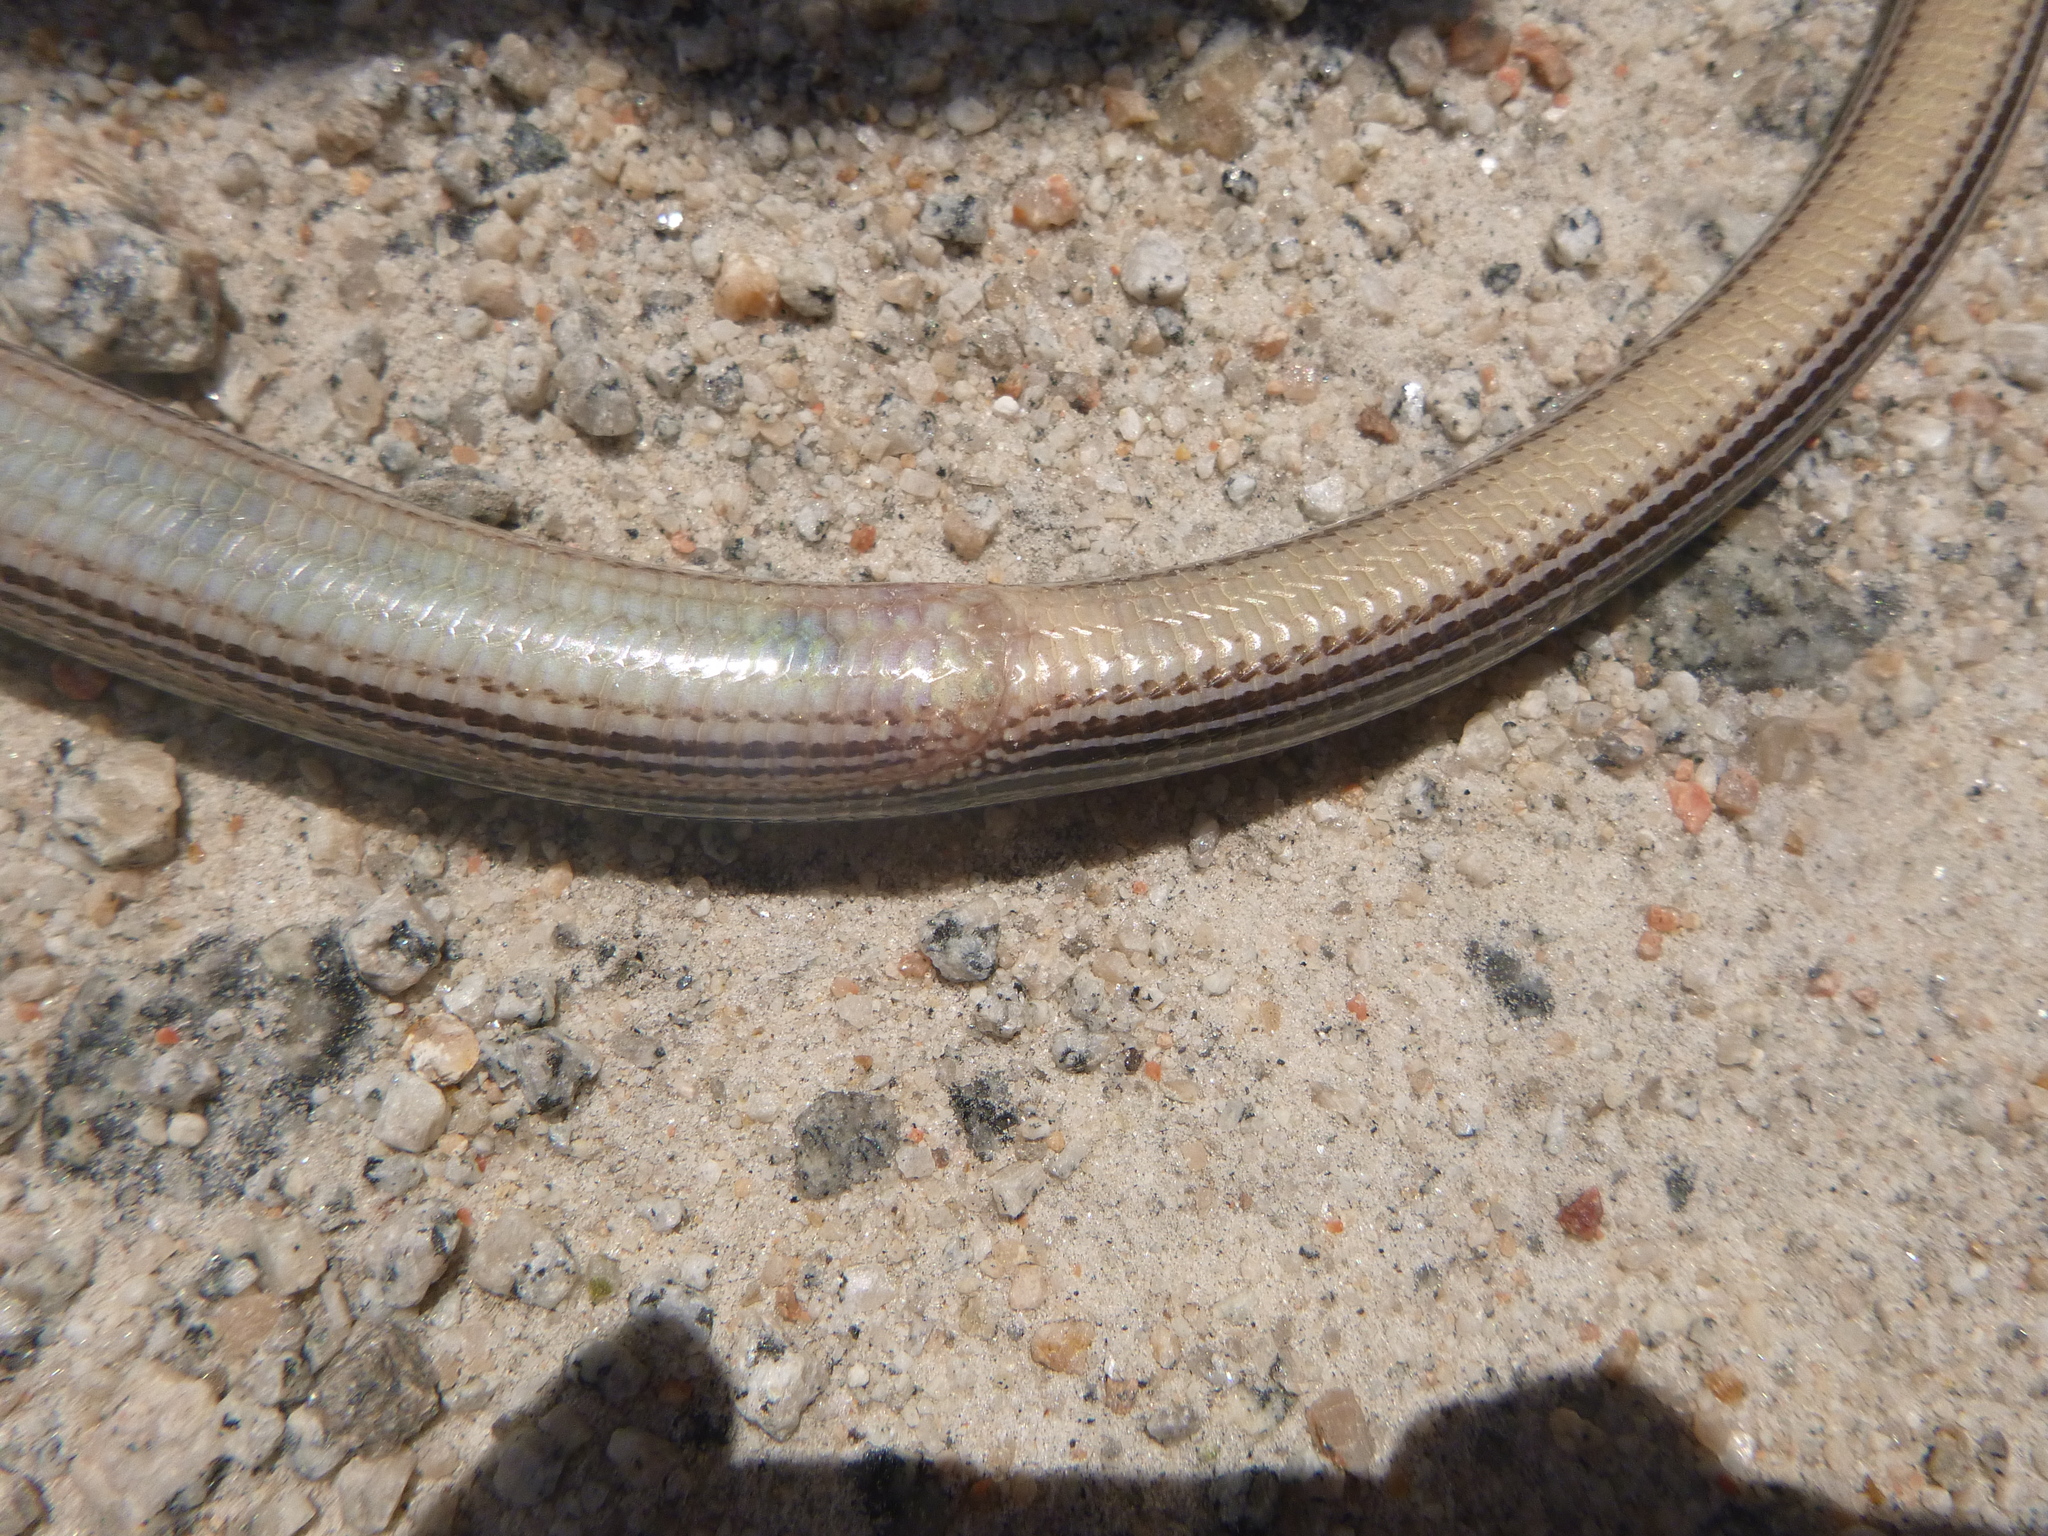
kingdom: Animalia
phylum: Chordata
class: Squamata
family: Anguidae
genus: Ophisaurus
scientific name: Ophisaurus attenuatus
